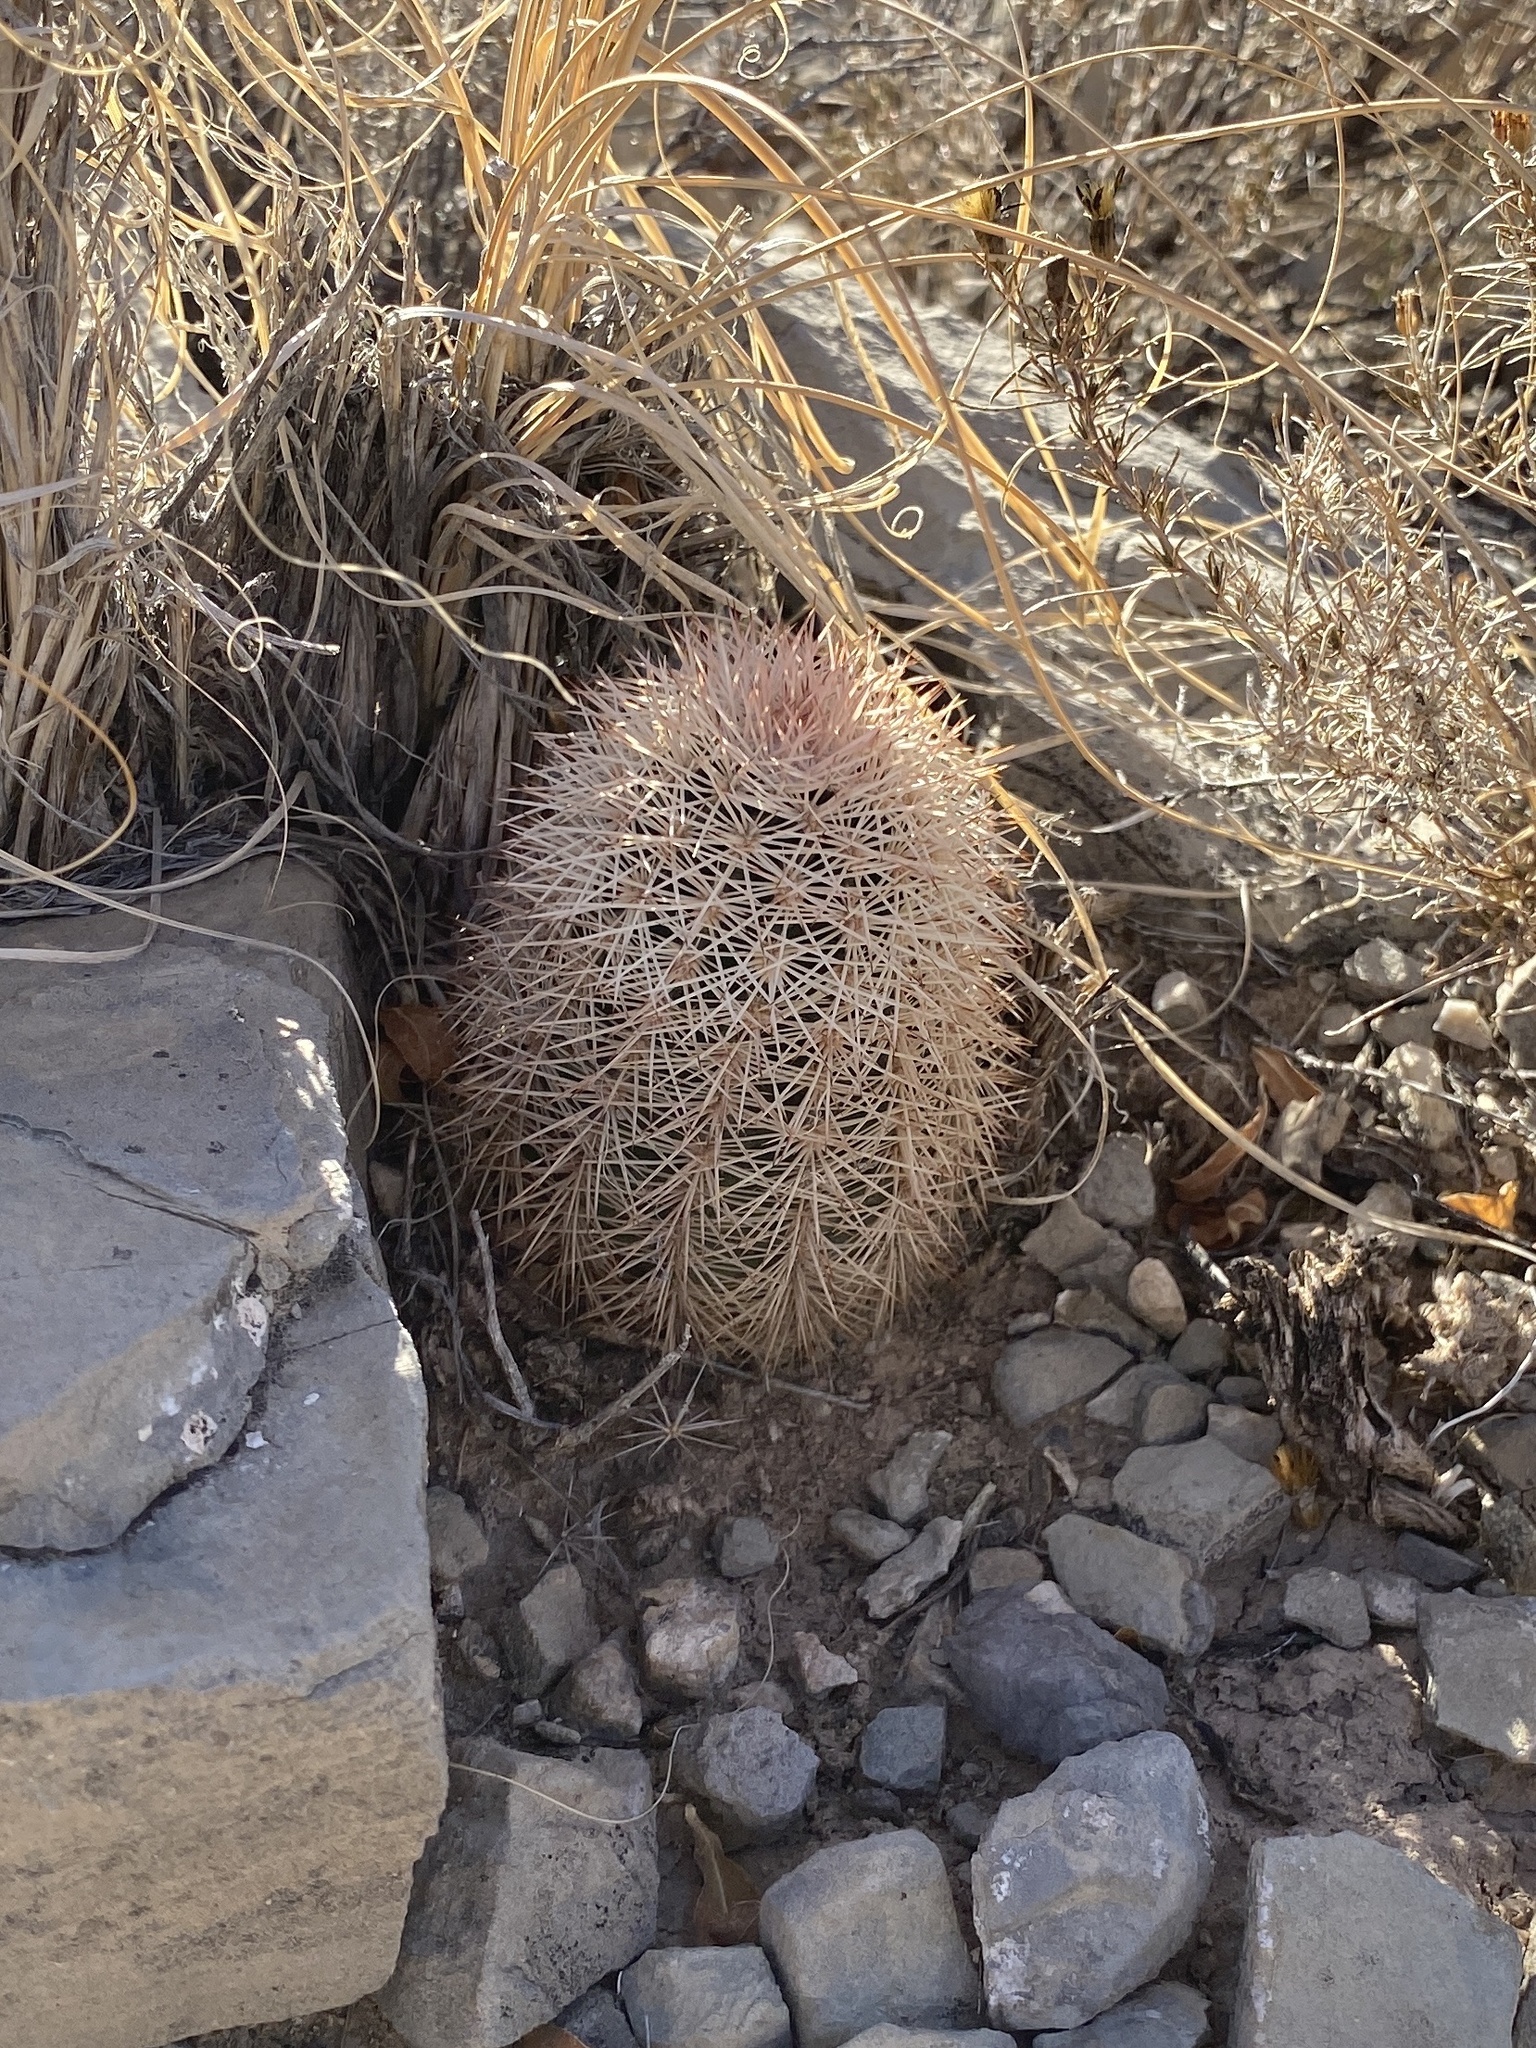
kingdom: Plantae
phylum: Tracheophyta
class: Magnoliopsida
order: Caryophyllales
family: Cactaceae
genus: Echinocereus
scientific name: Echinocereus dasyacanthus
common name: Spiny hedgehog cactus
